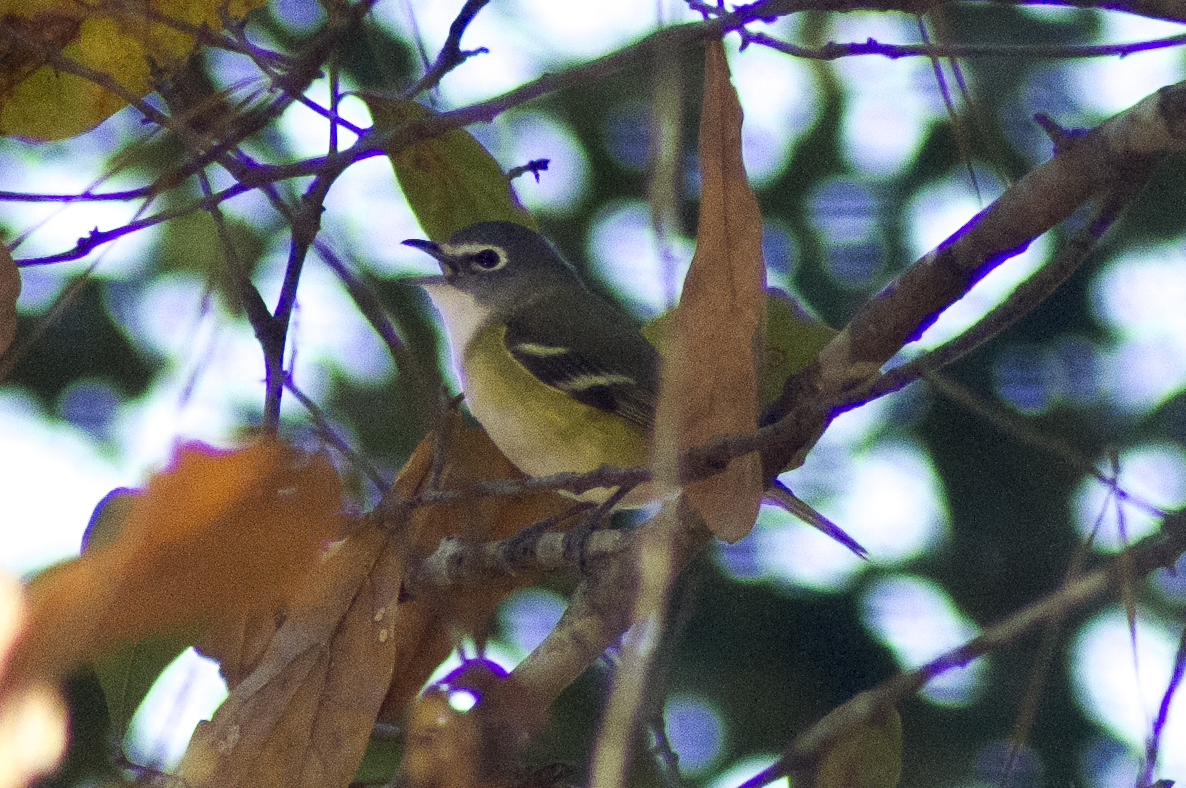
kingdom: Animalia
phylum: Chordata
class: Aves
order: Passeriformes
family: Vireonidae
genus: Vireo
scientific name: Vireo solitarius
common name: Blue-headed vireo
